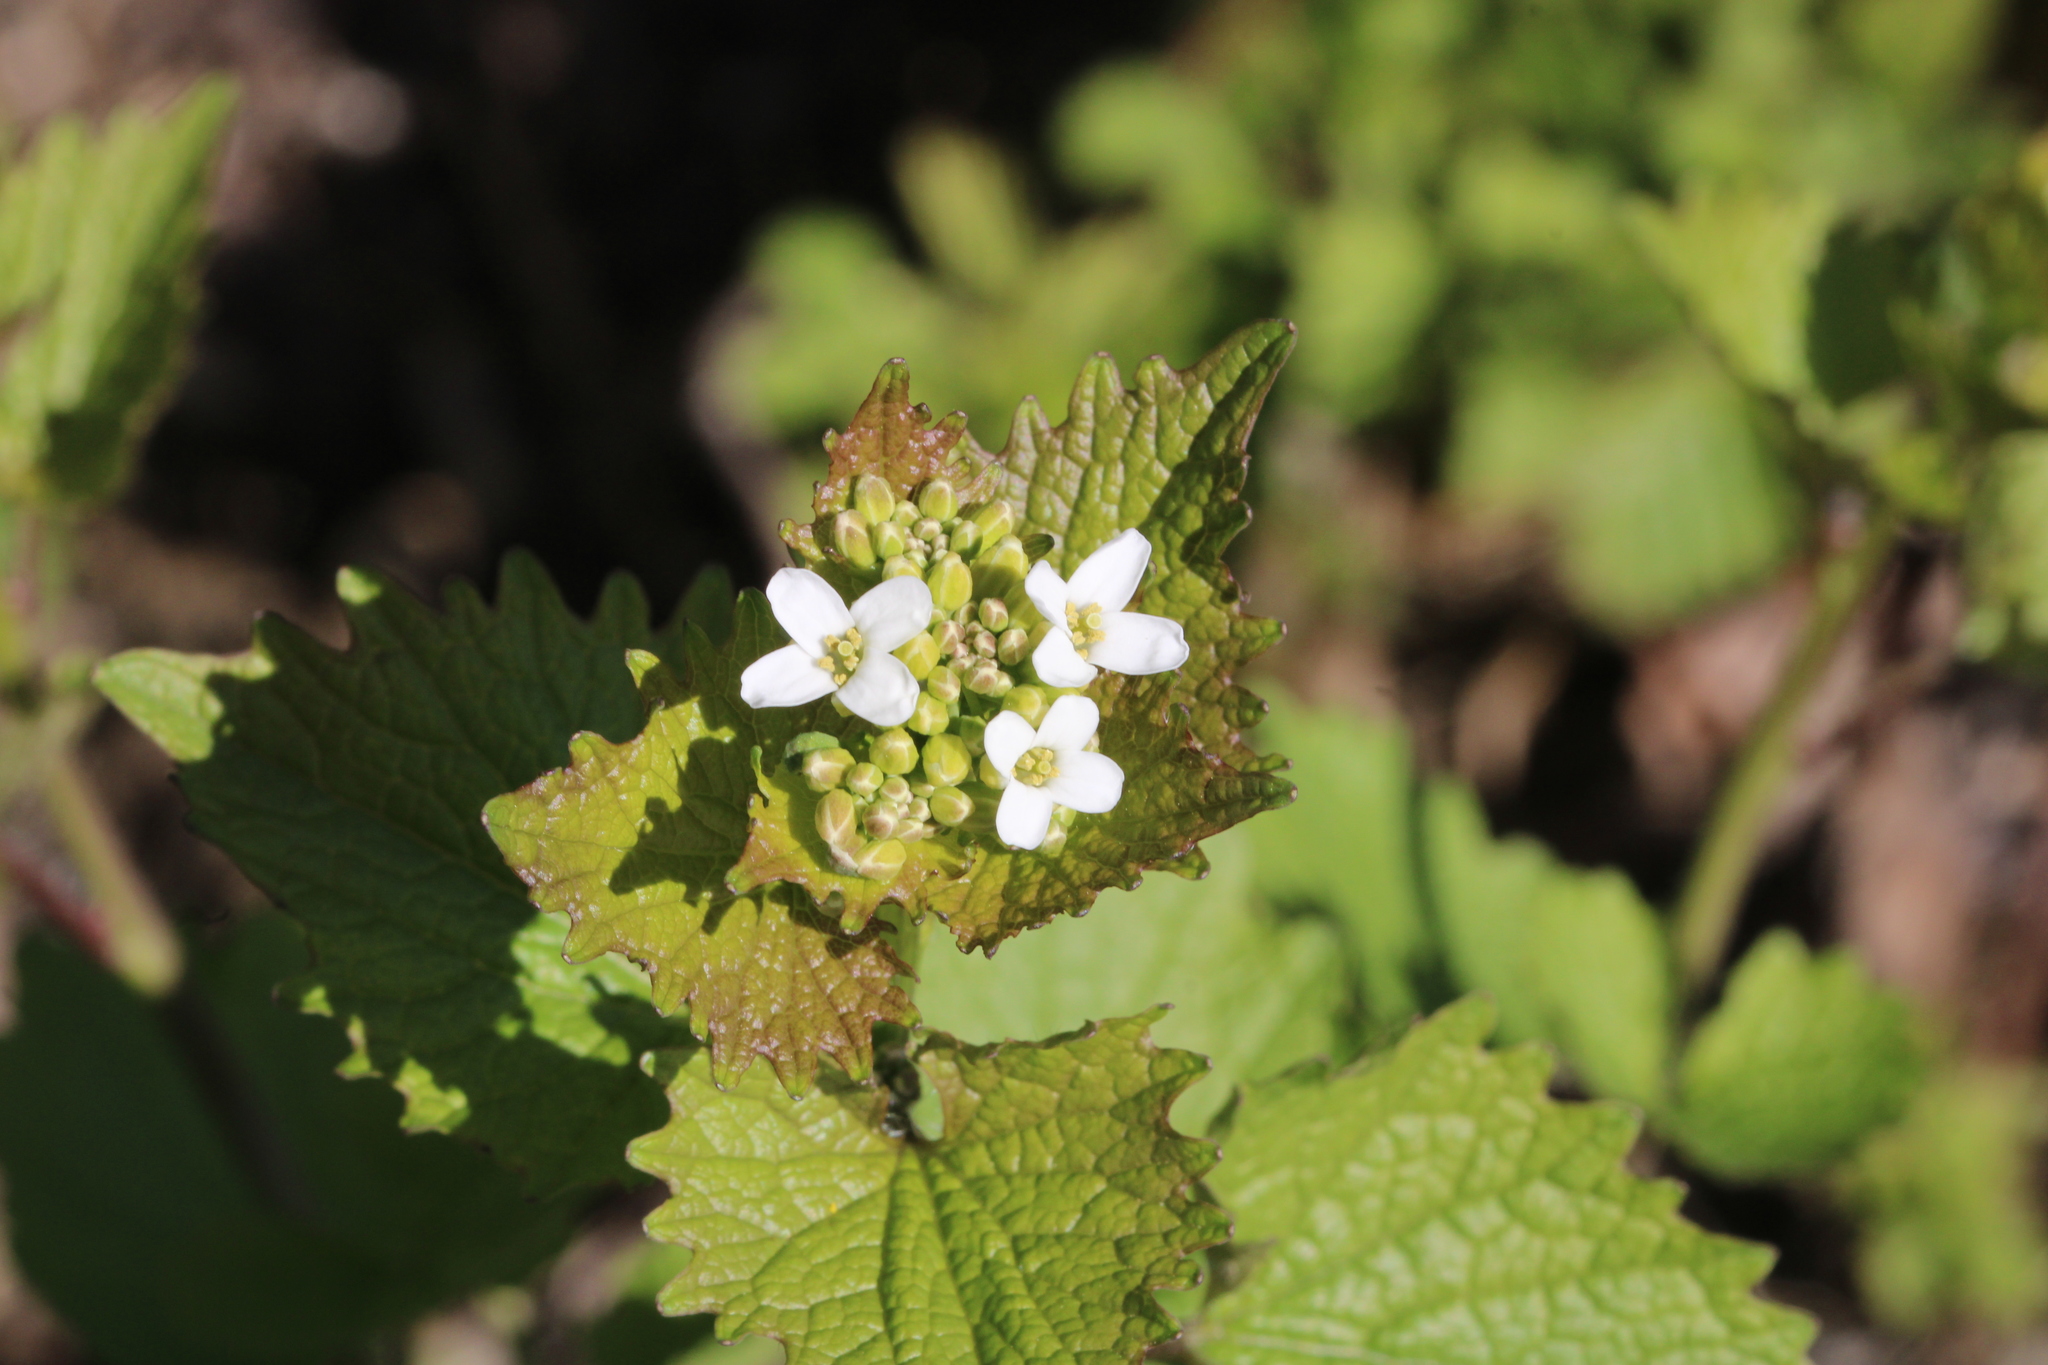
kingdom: Plantae
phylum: Tracheophyta
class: Magnoliopsida
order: Brassicales
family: Brassicaceae
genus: Alliaria
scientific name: Alliaria petiolata
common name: Garlic mustard
